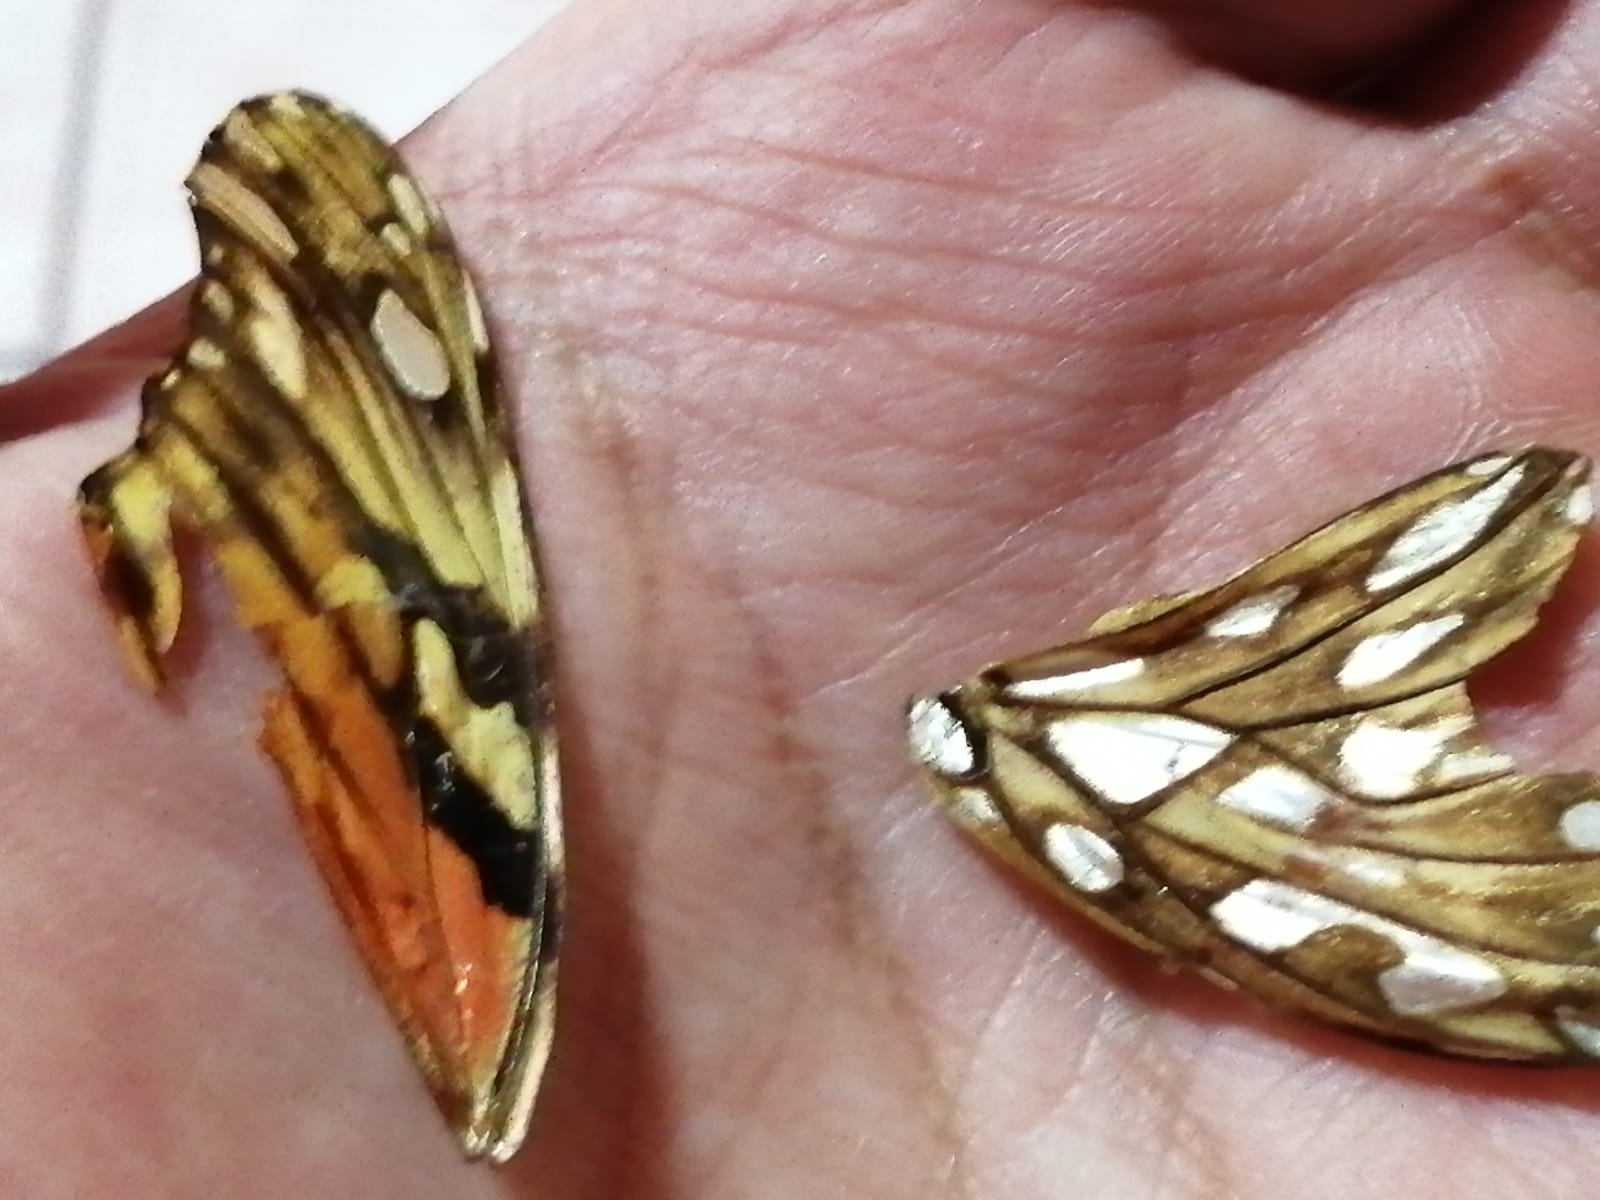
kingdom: Animalia
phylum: Arthropoda
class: Insecta
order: Lepidoptera
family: Nymphalidae
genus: Dione
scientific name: Dione juno
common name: Juno silverspot
